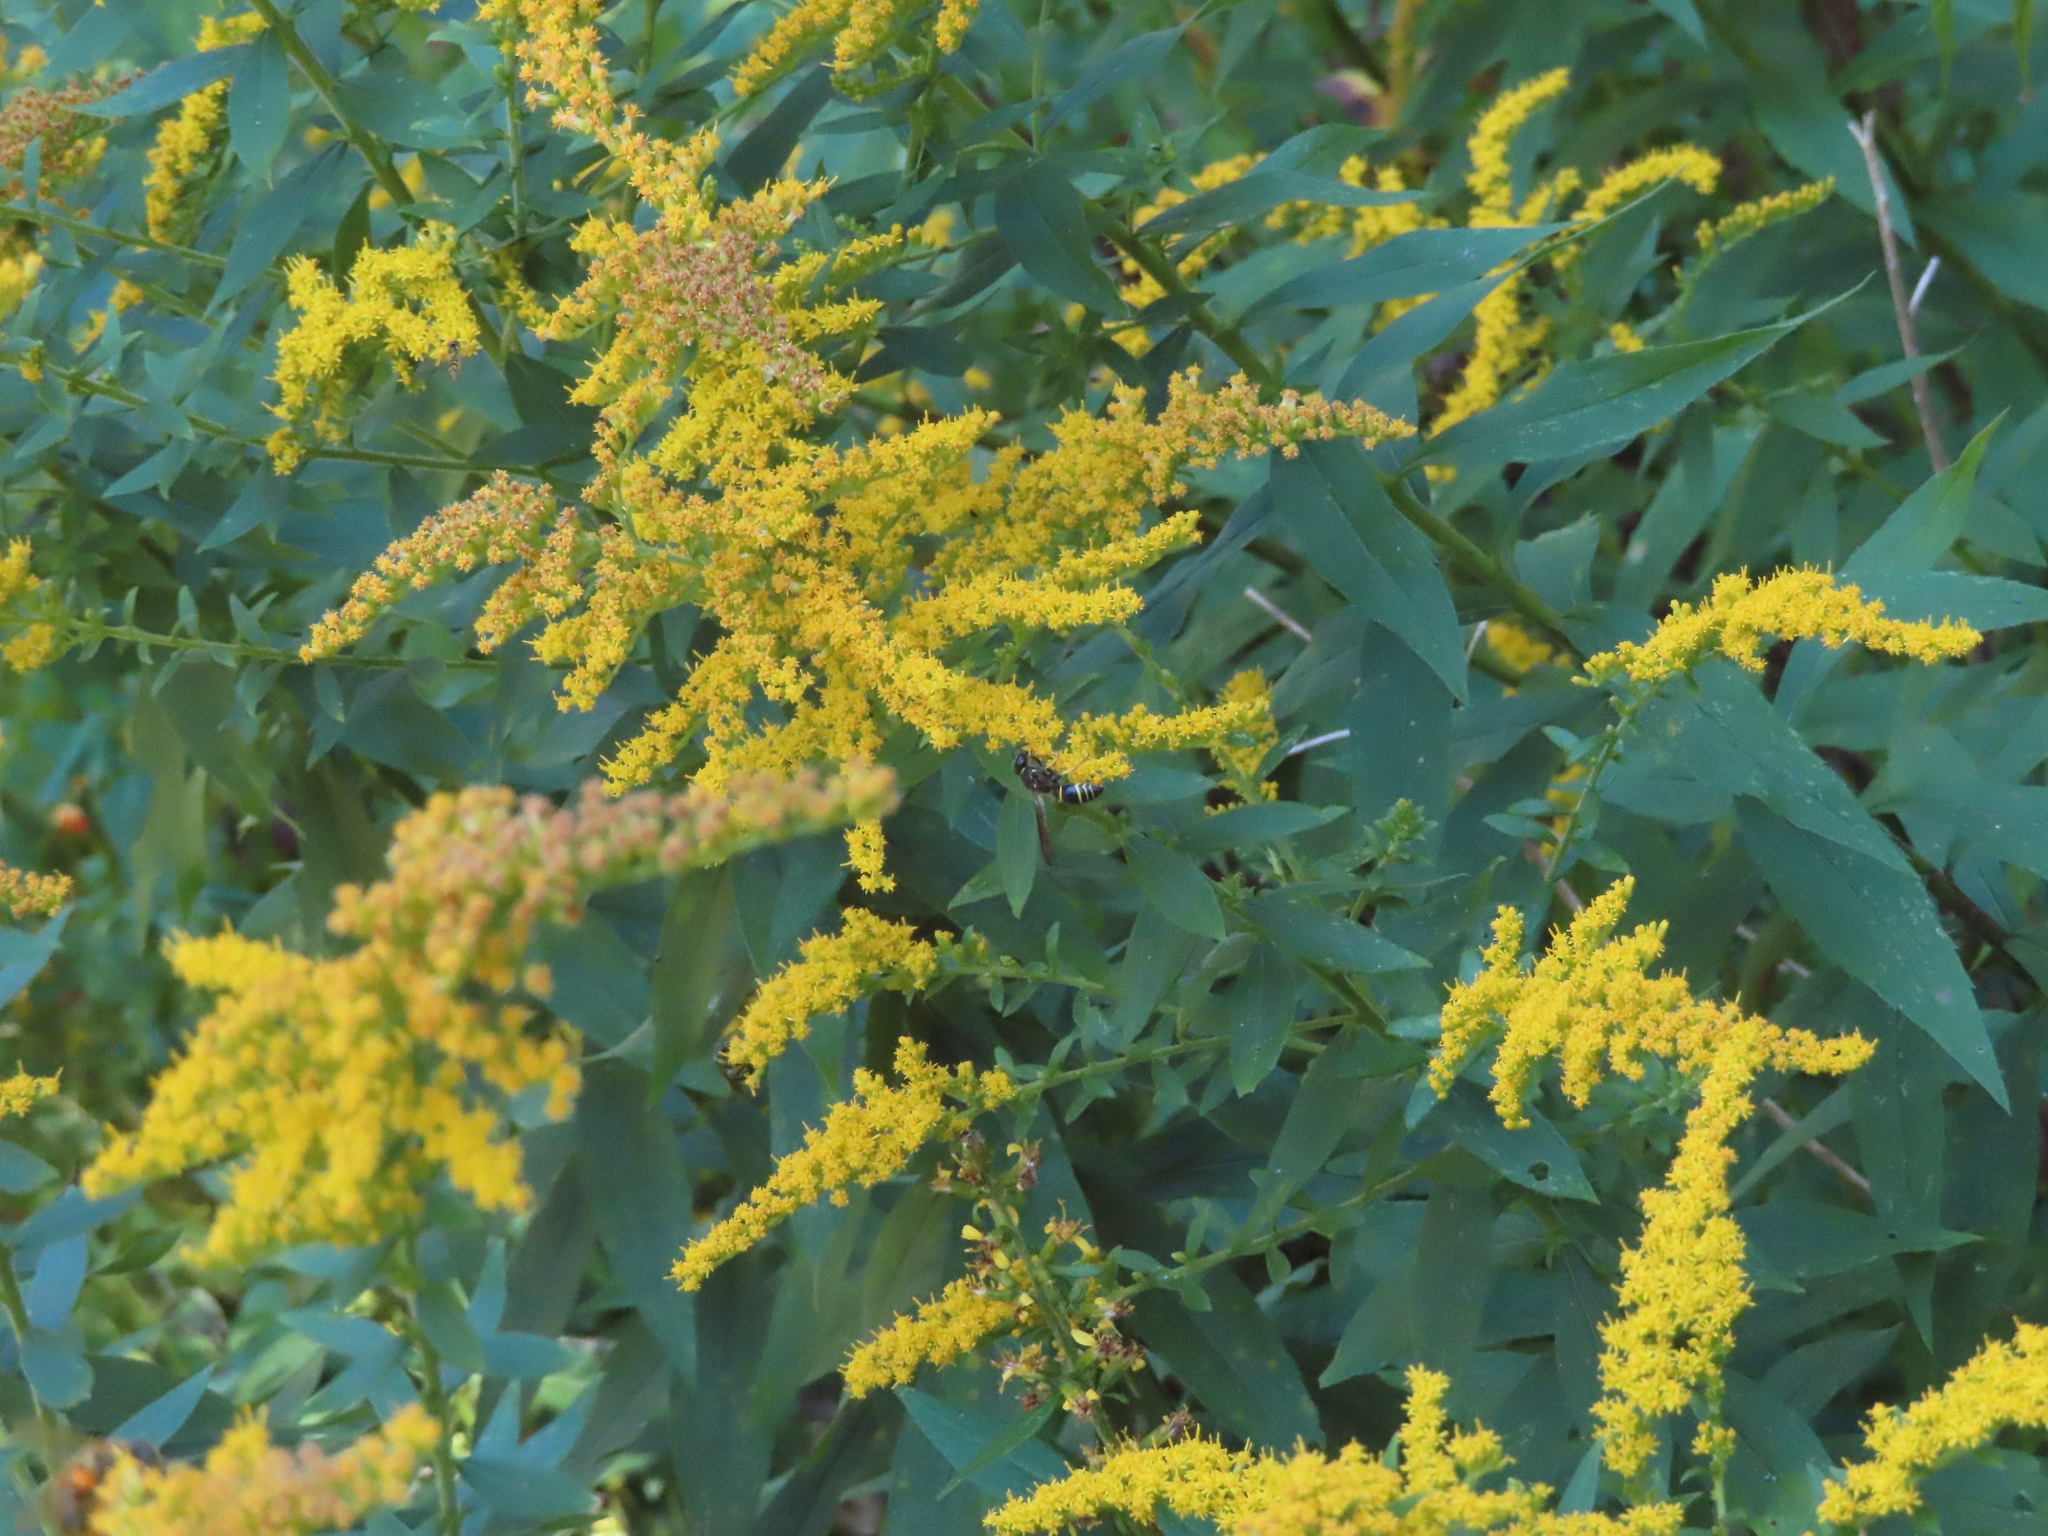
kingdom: Animalia
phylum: Arthropoda
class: Insecta
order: Hymenoptera
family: Vespidae
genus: Ancistrocerus
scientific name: Ancistrocerus
